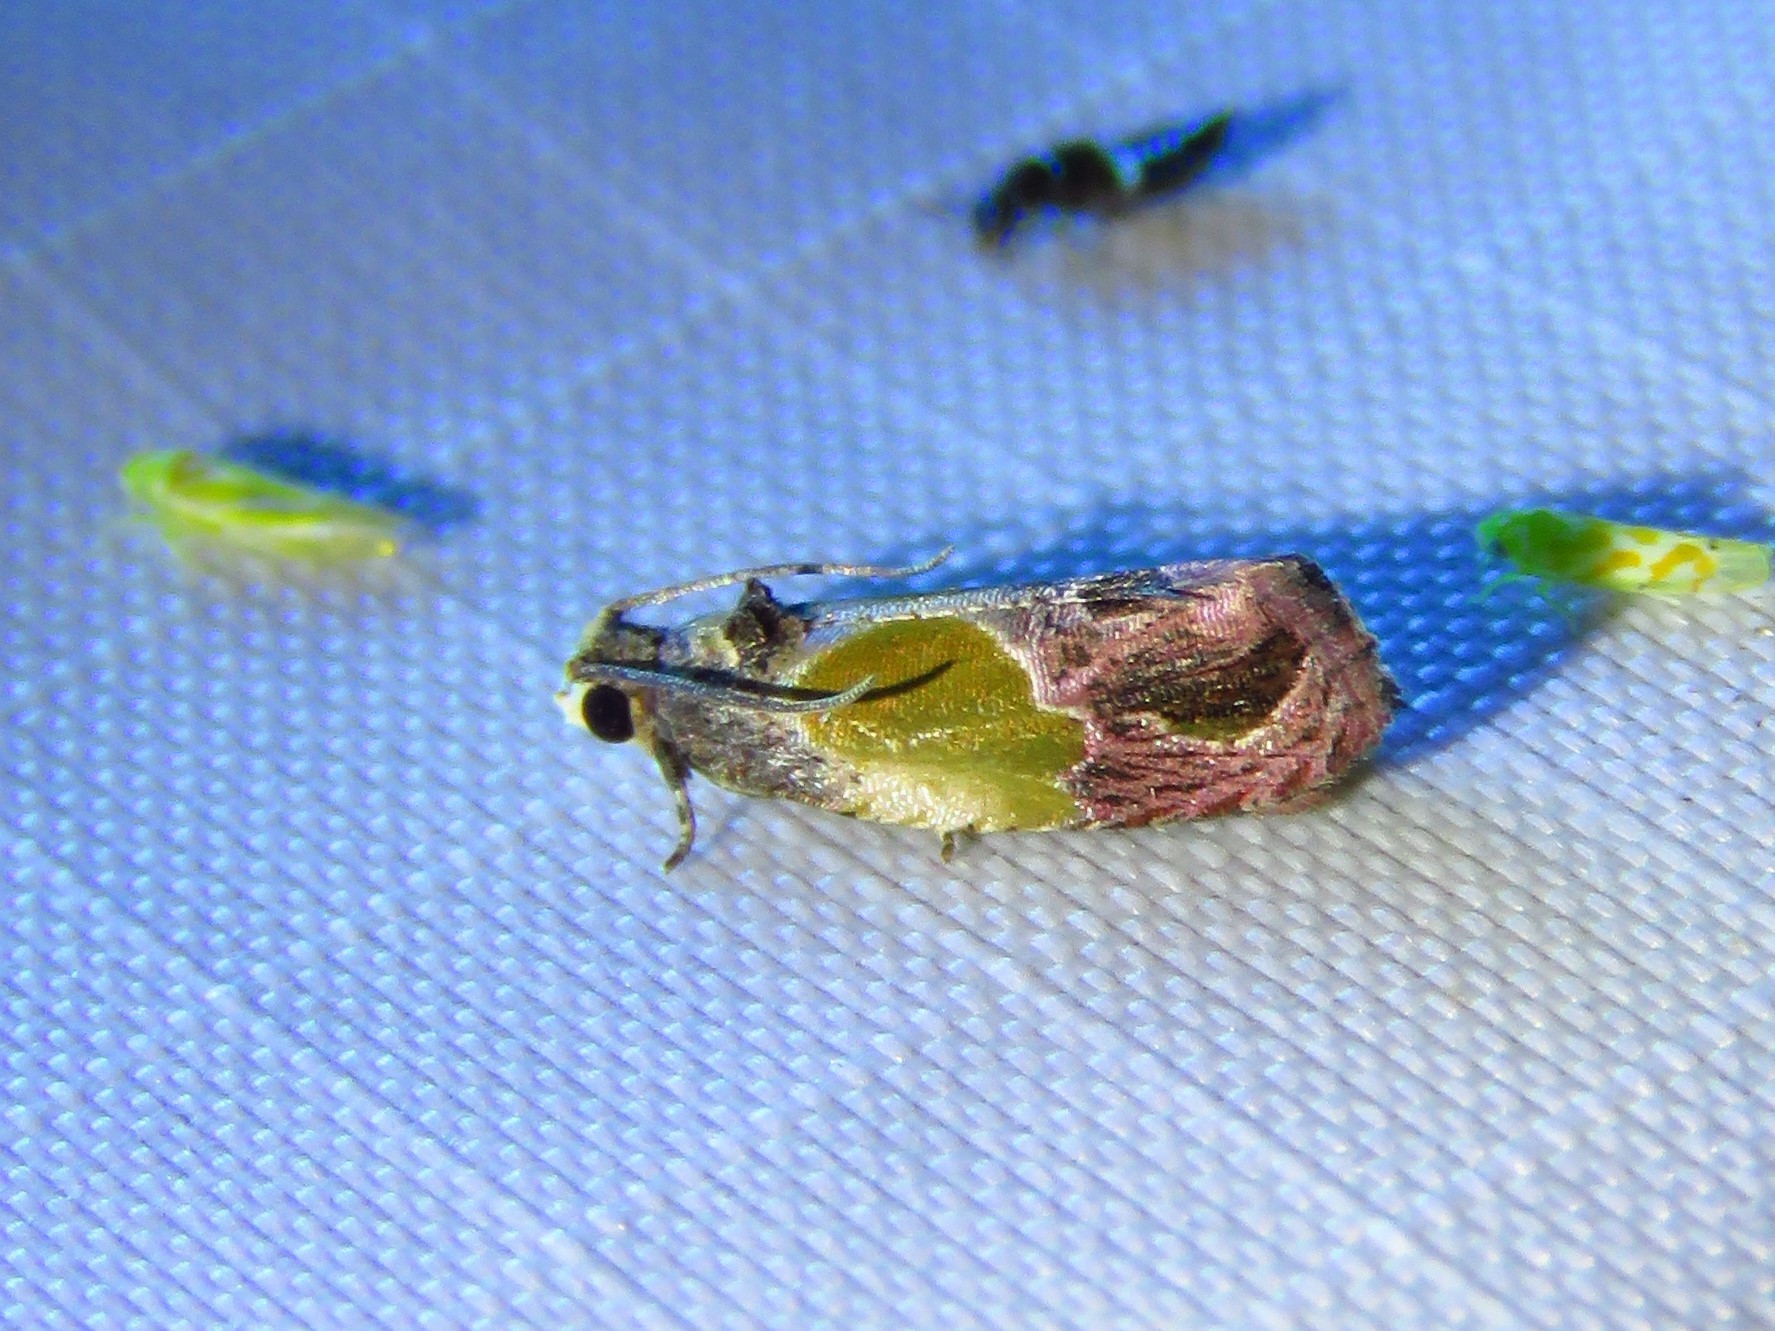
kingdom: Animalia
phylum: Arthropoda
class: Insecta
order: Lepidoptera
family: Tortricidae
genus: Eumarozia
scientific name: Eumarozia malachitana
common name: Sculptured moth
